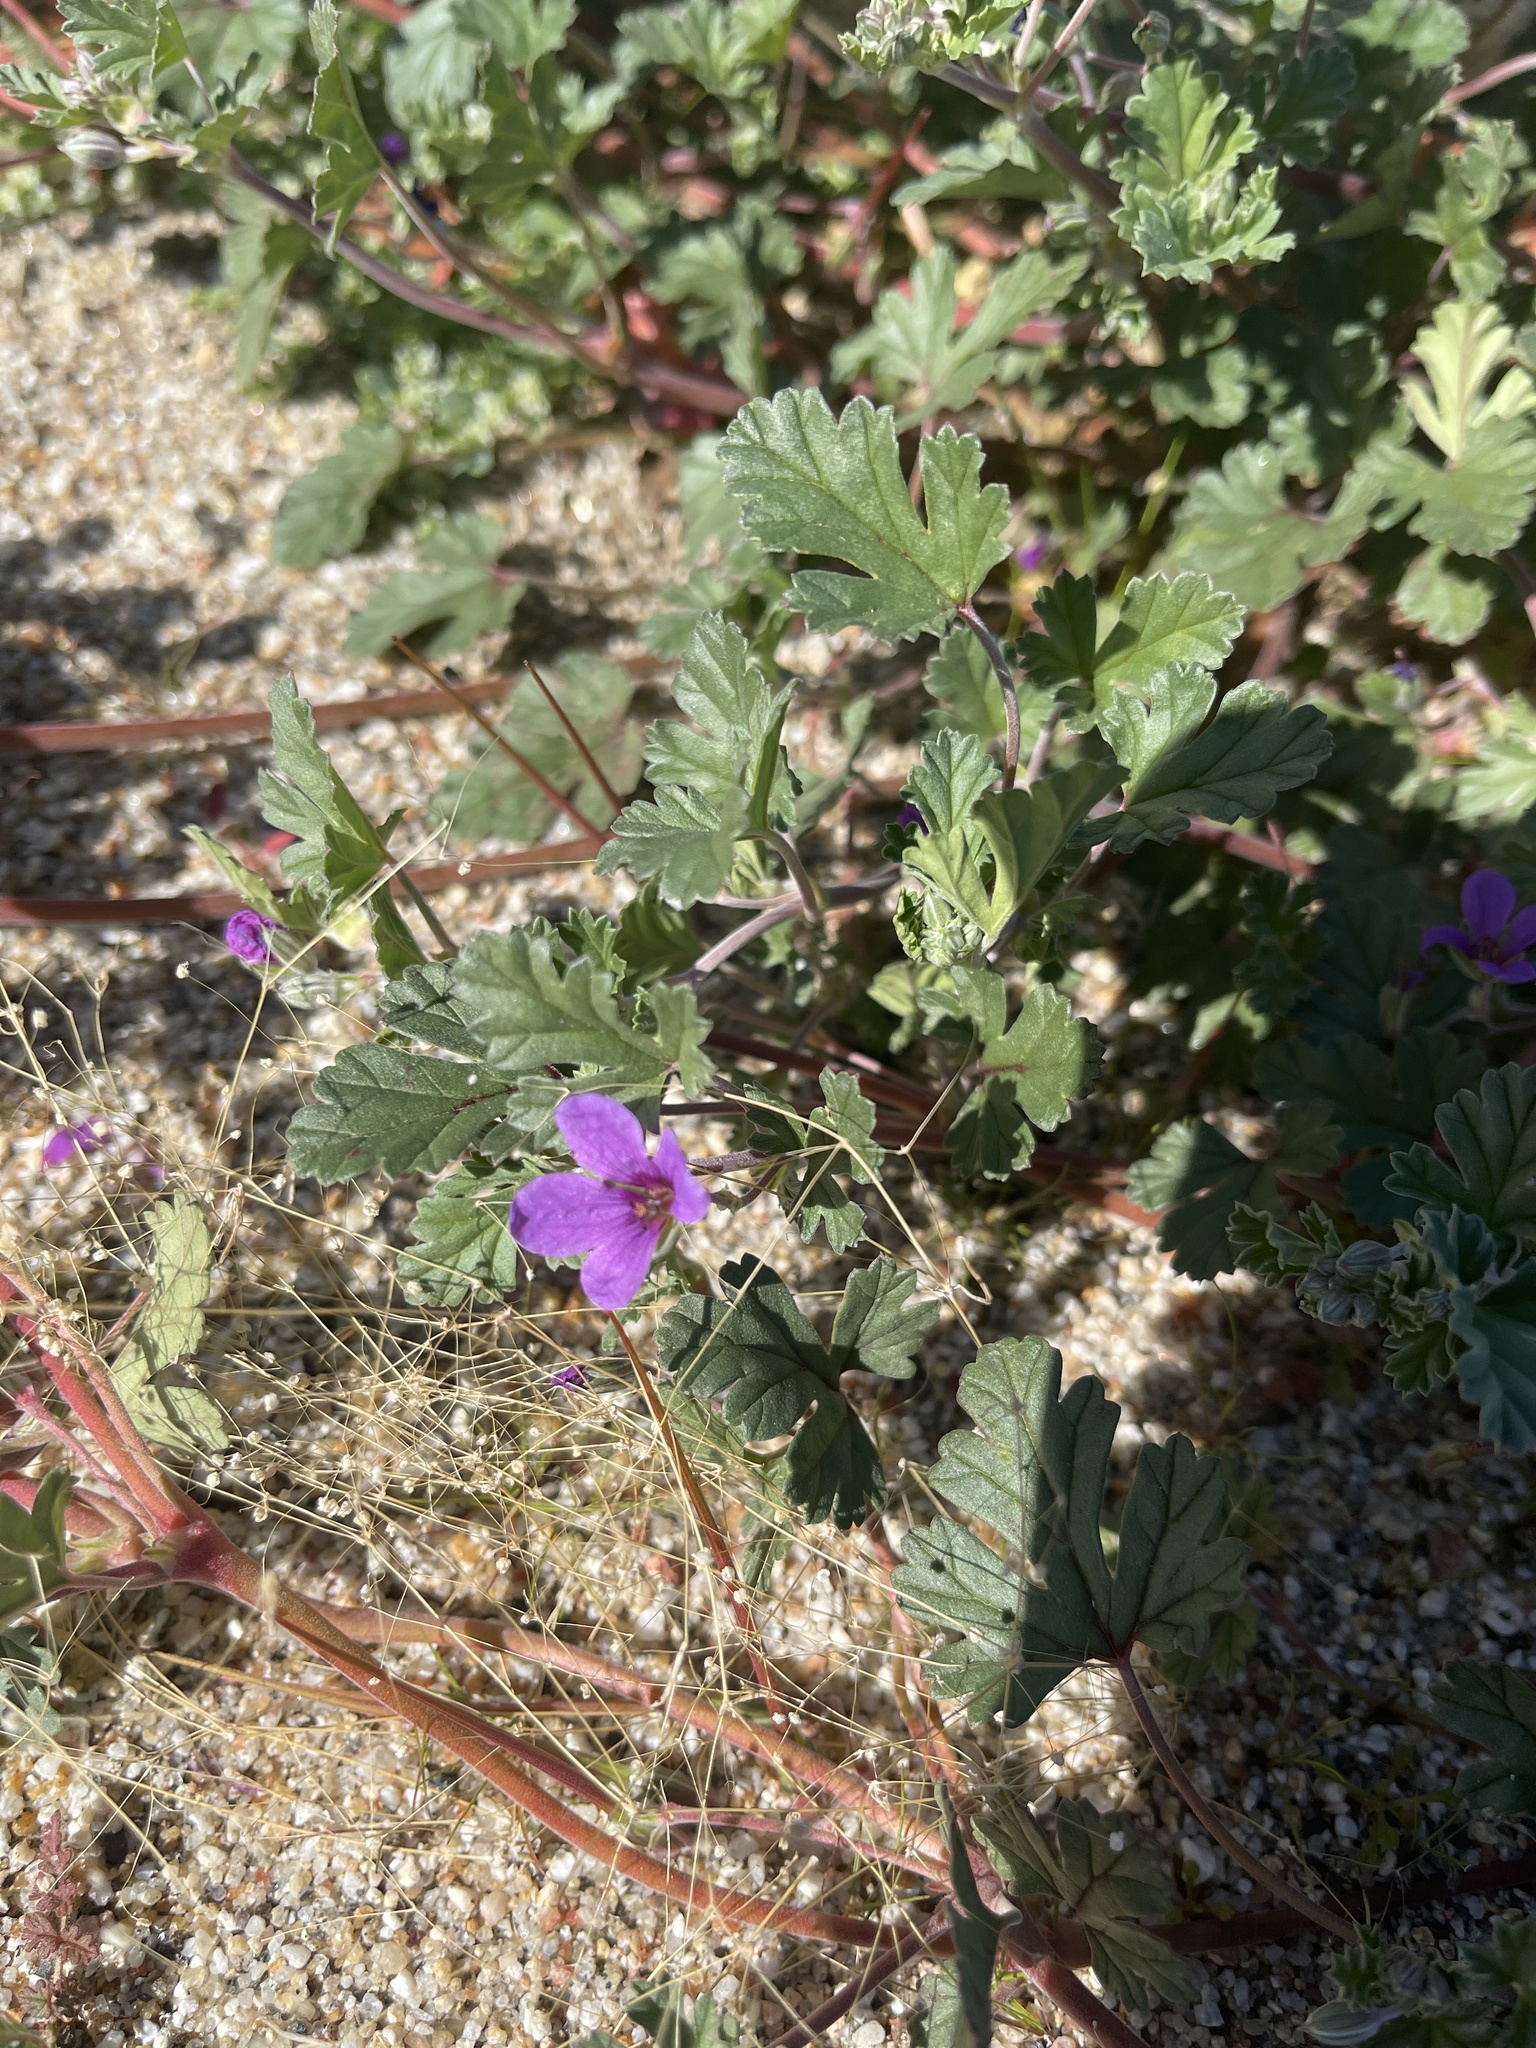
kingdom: Plantae
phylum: Tracheophyta
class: Magnoliopsida
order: Geraniales
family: Geraniaceae
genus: Erodium
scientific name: Erodium texanum
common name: Texas stork's-bill
